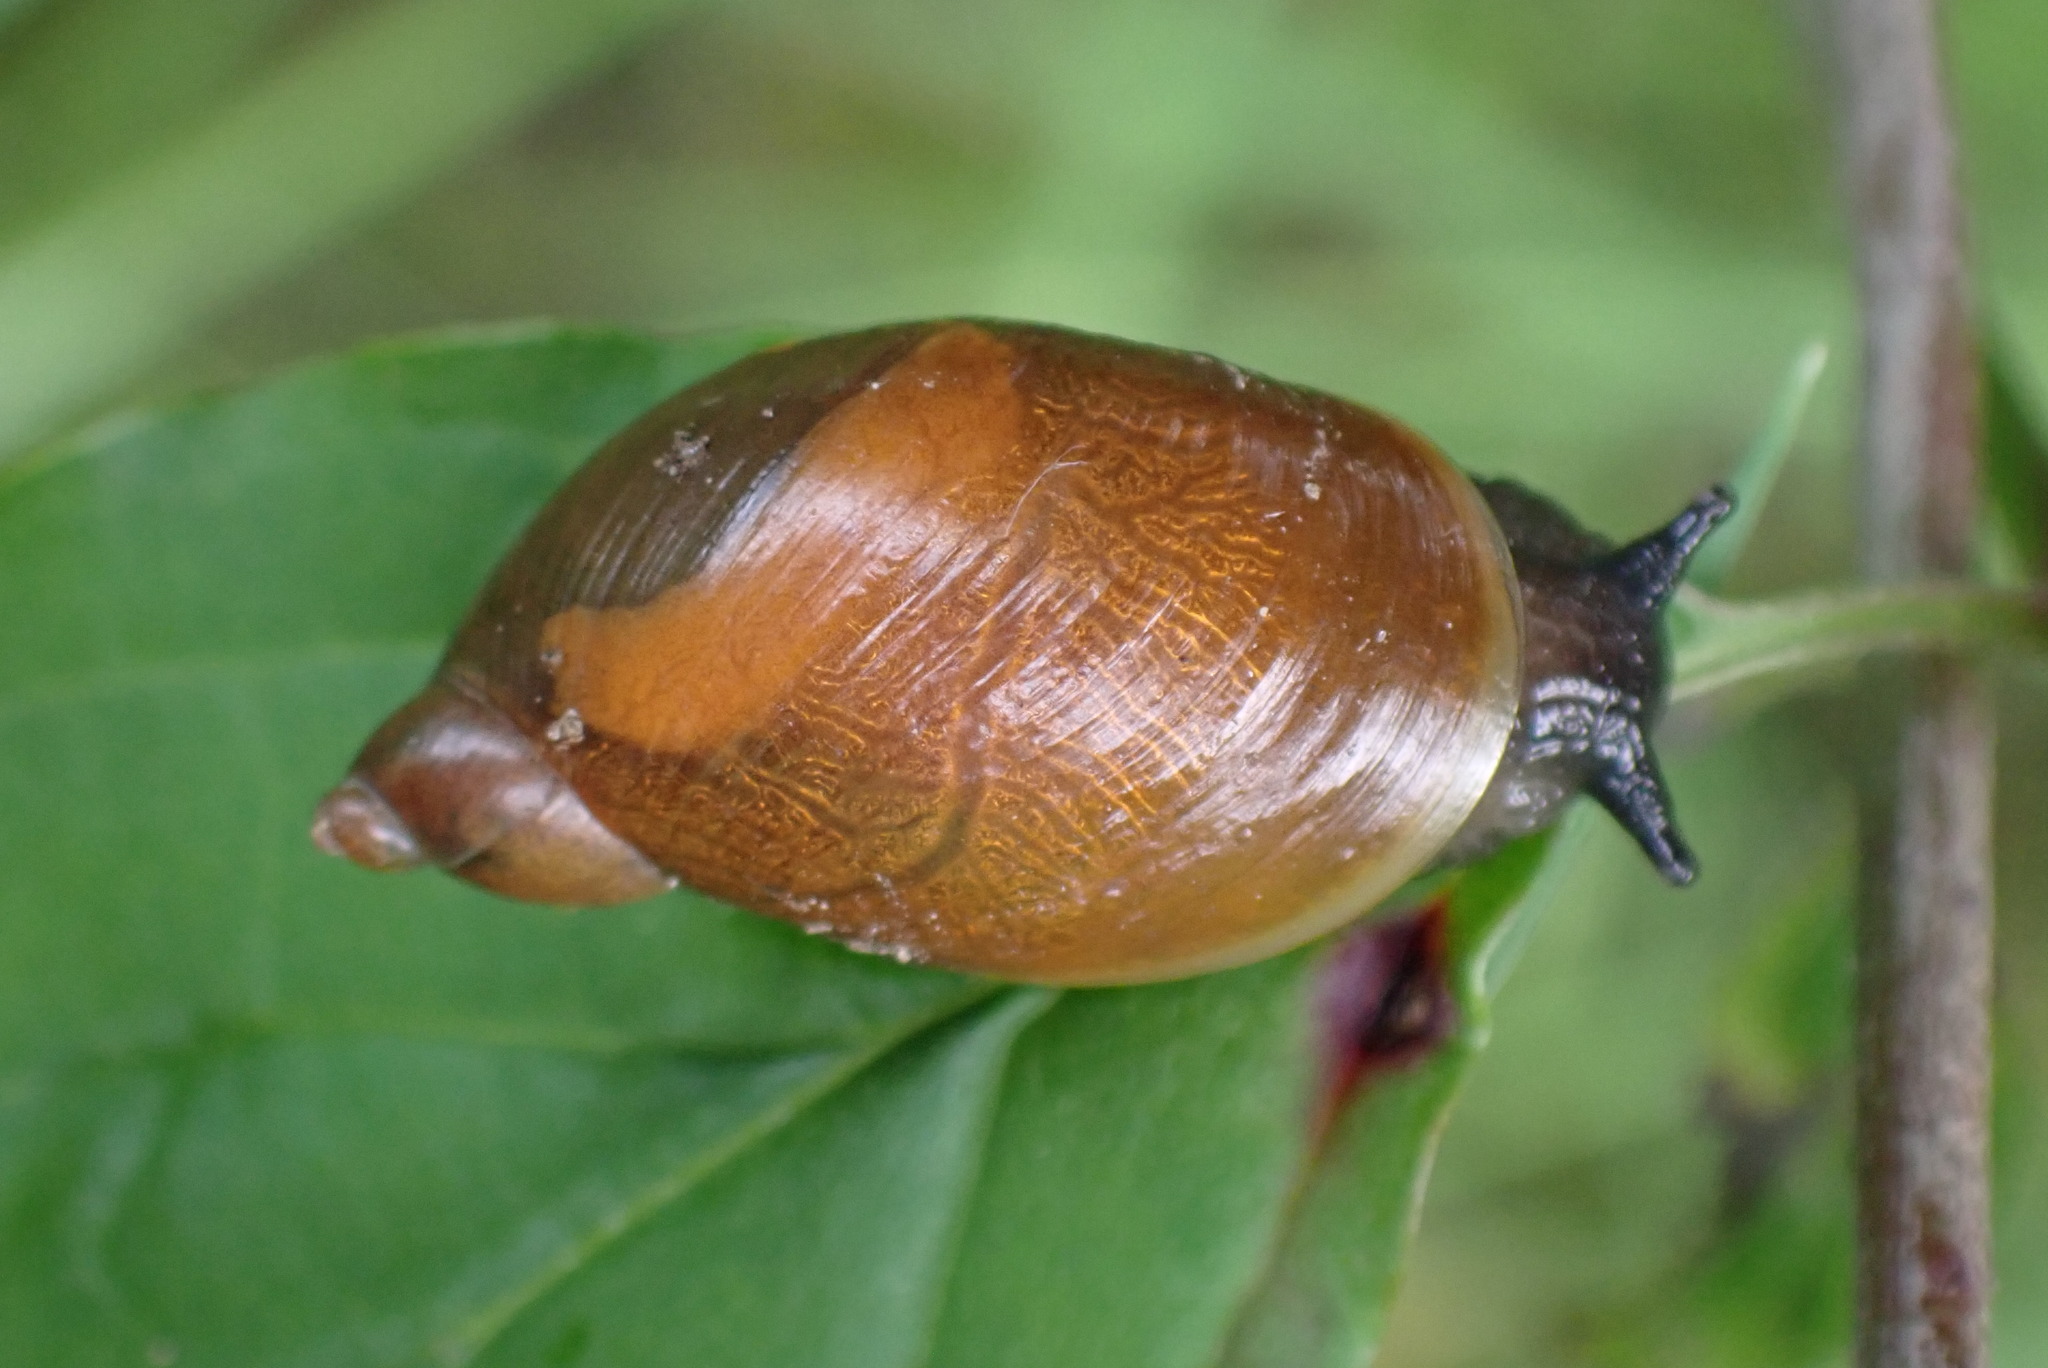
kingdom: Animalia
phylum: Mollusca
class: Gastropoda
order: Stylommatophora
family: Succineidae
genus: Succinea
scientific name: Succinea putris
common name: European ambersnail
